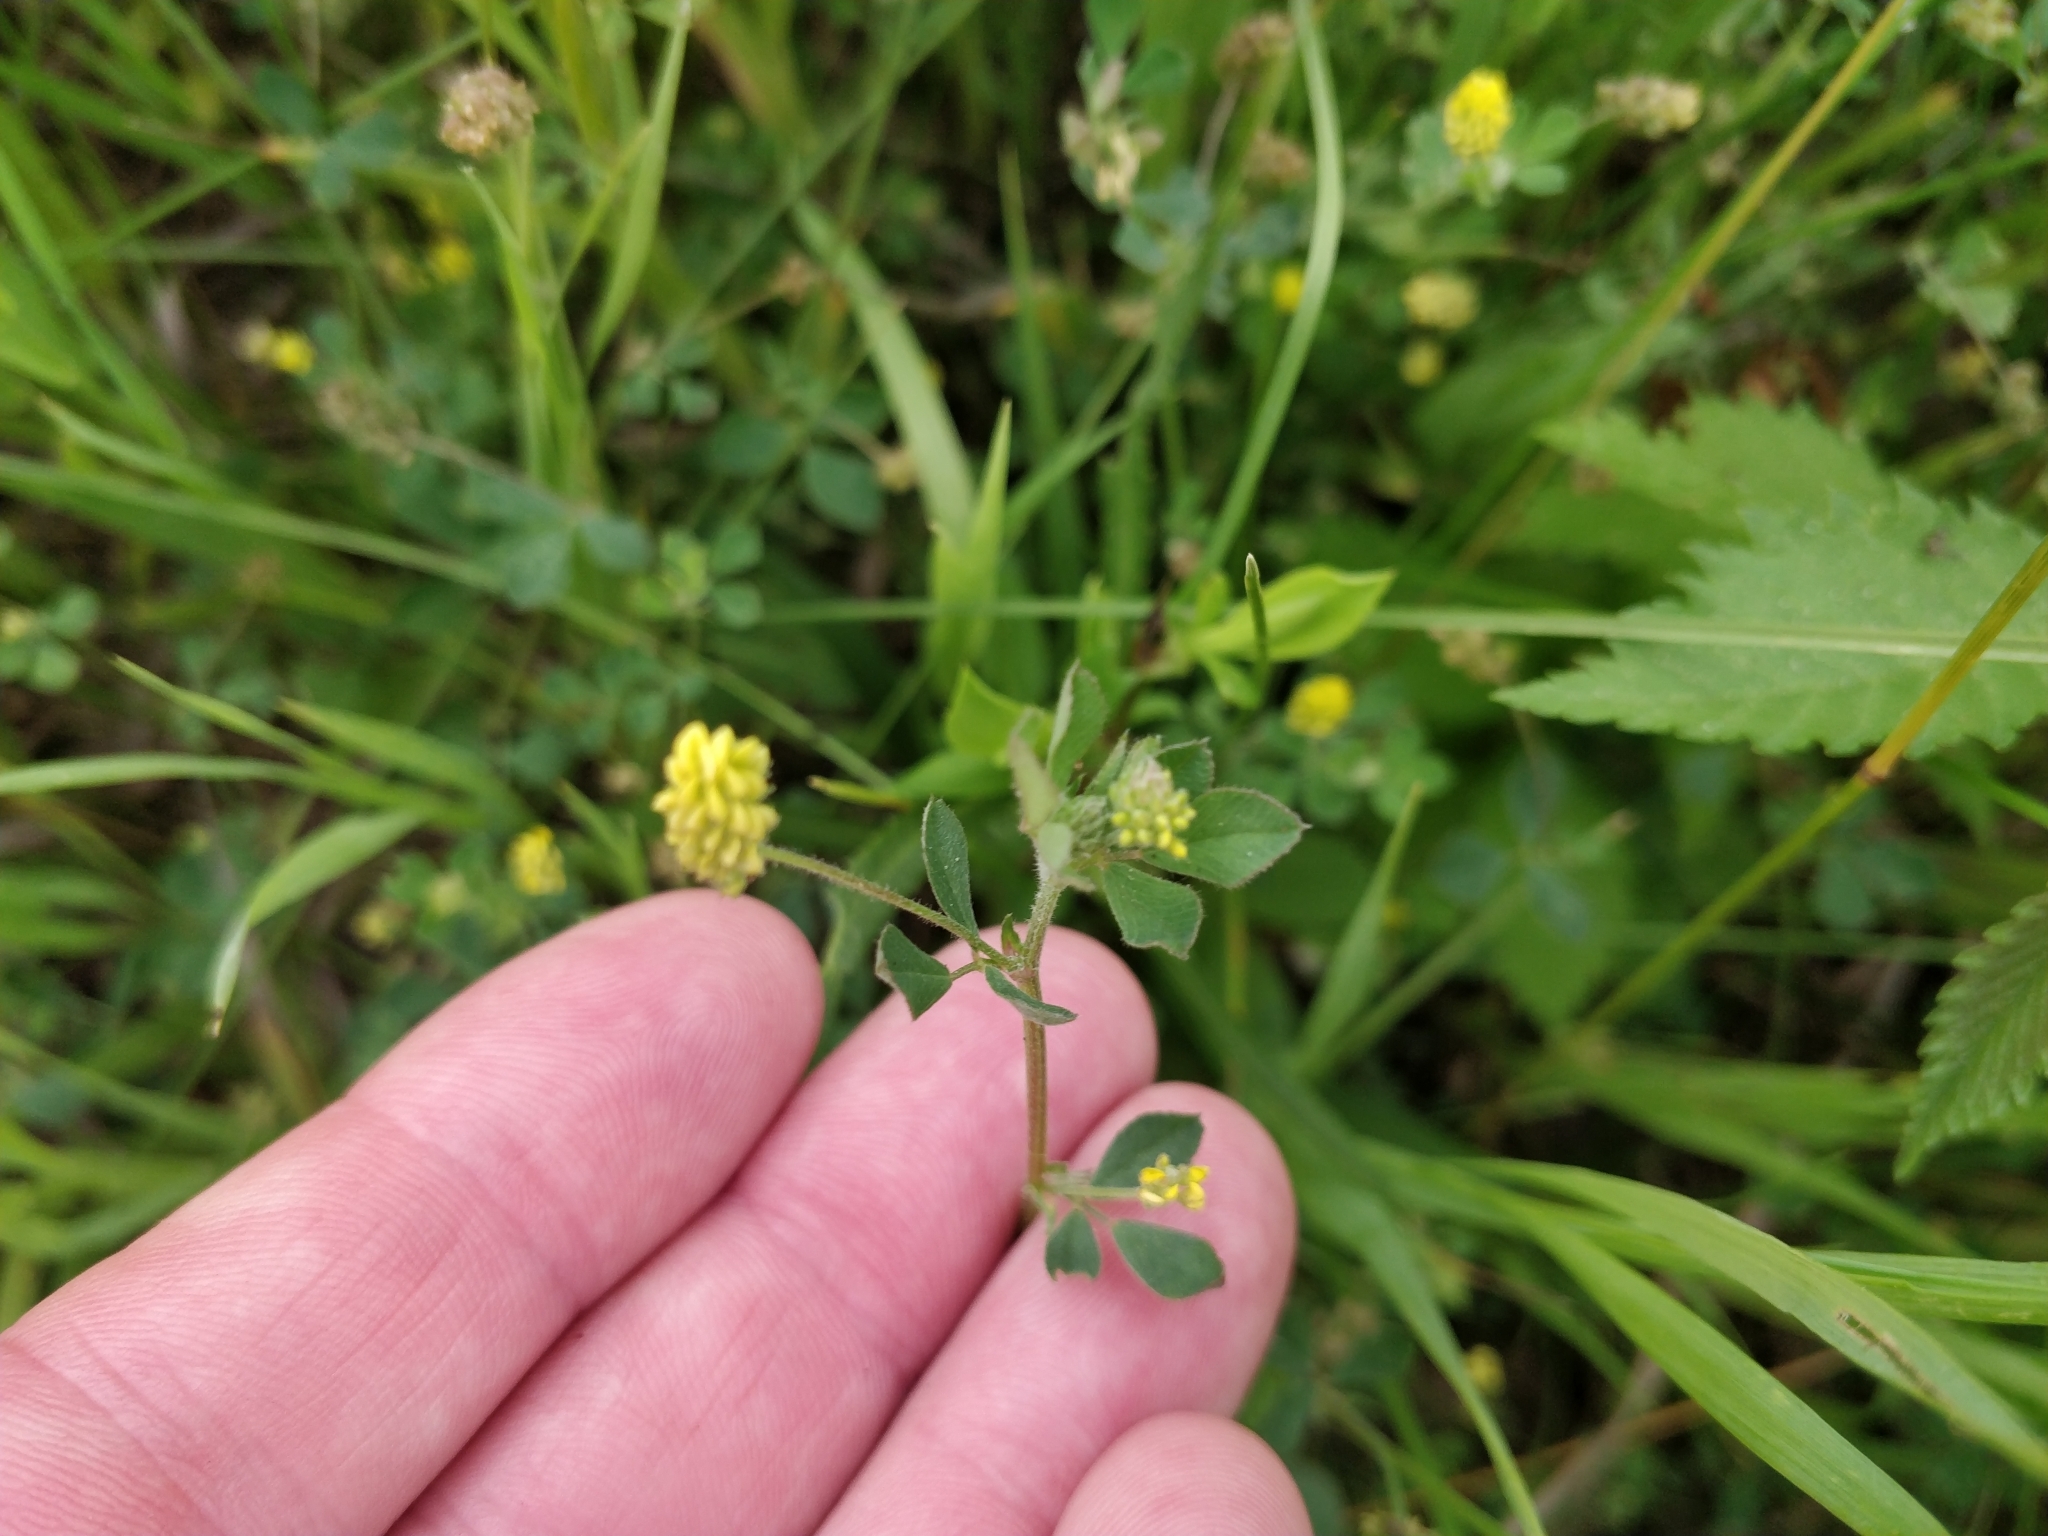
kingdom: Plantae
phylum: Tracheophyta
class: Magnoliopsida
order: Fabales
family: Fabaceae
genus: Medicago
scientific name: Medicago lupulina
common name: Black medick
